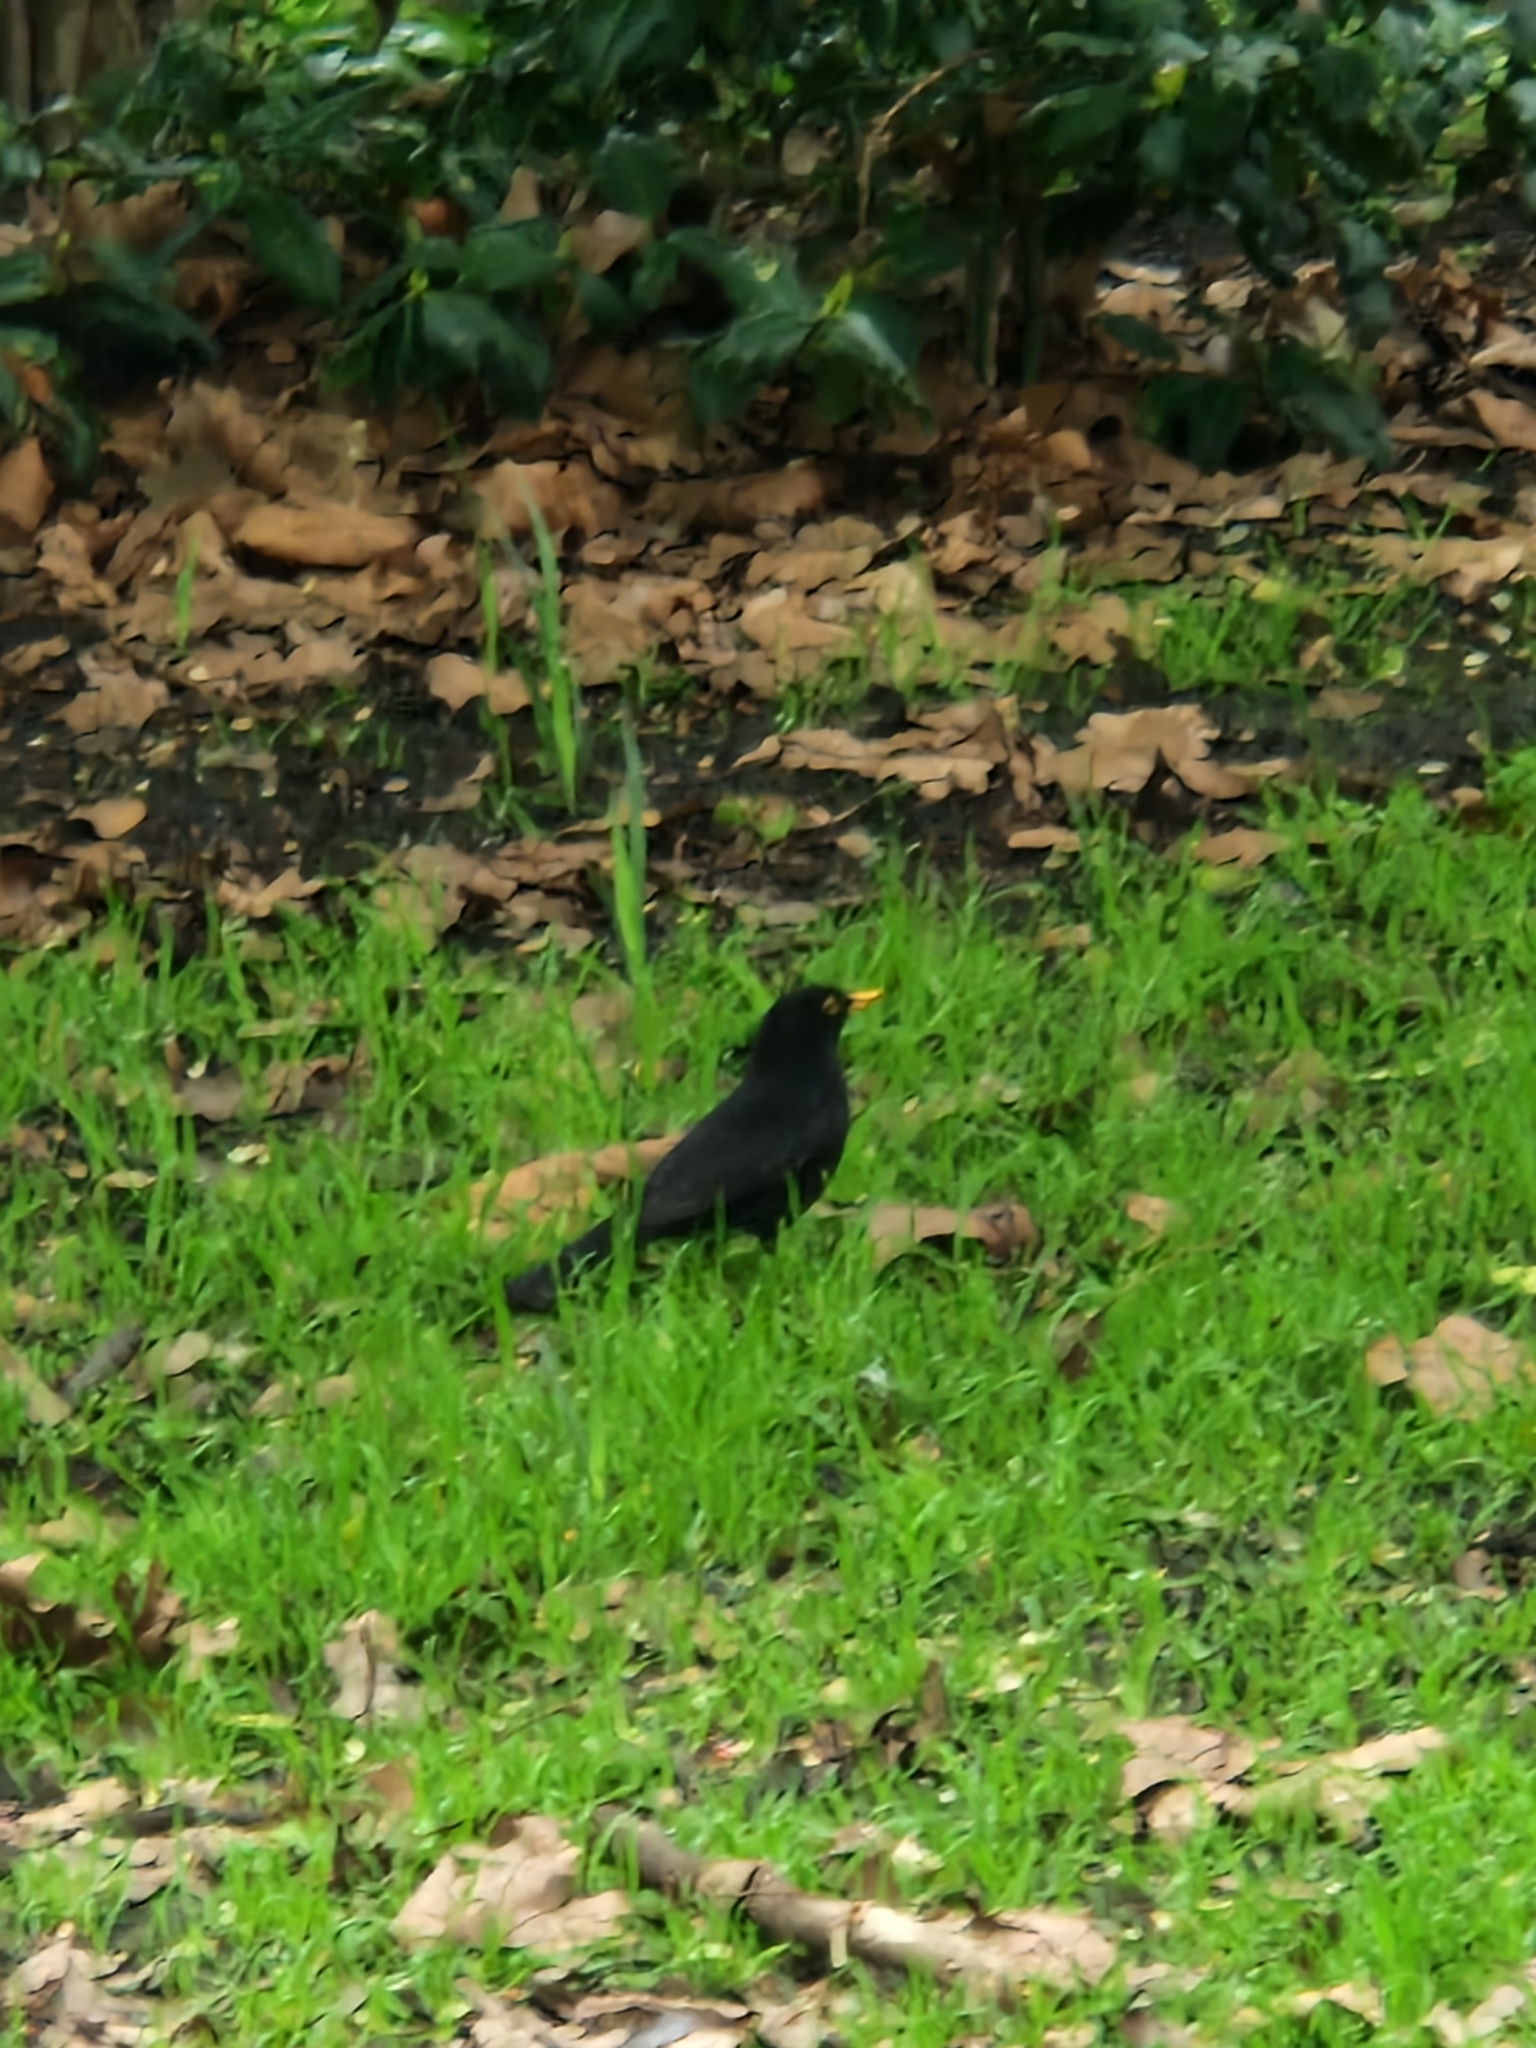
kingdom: Animalia
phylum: Chordata
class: Aves
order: Passeriformes
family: Turdidae
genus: Turdus
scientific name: Turdus merula
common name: Common blackbird
